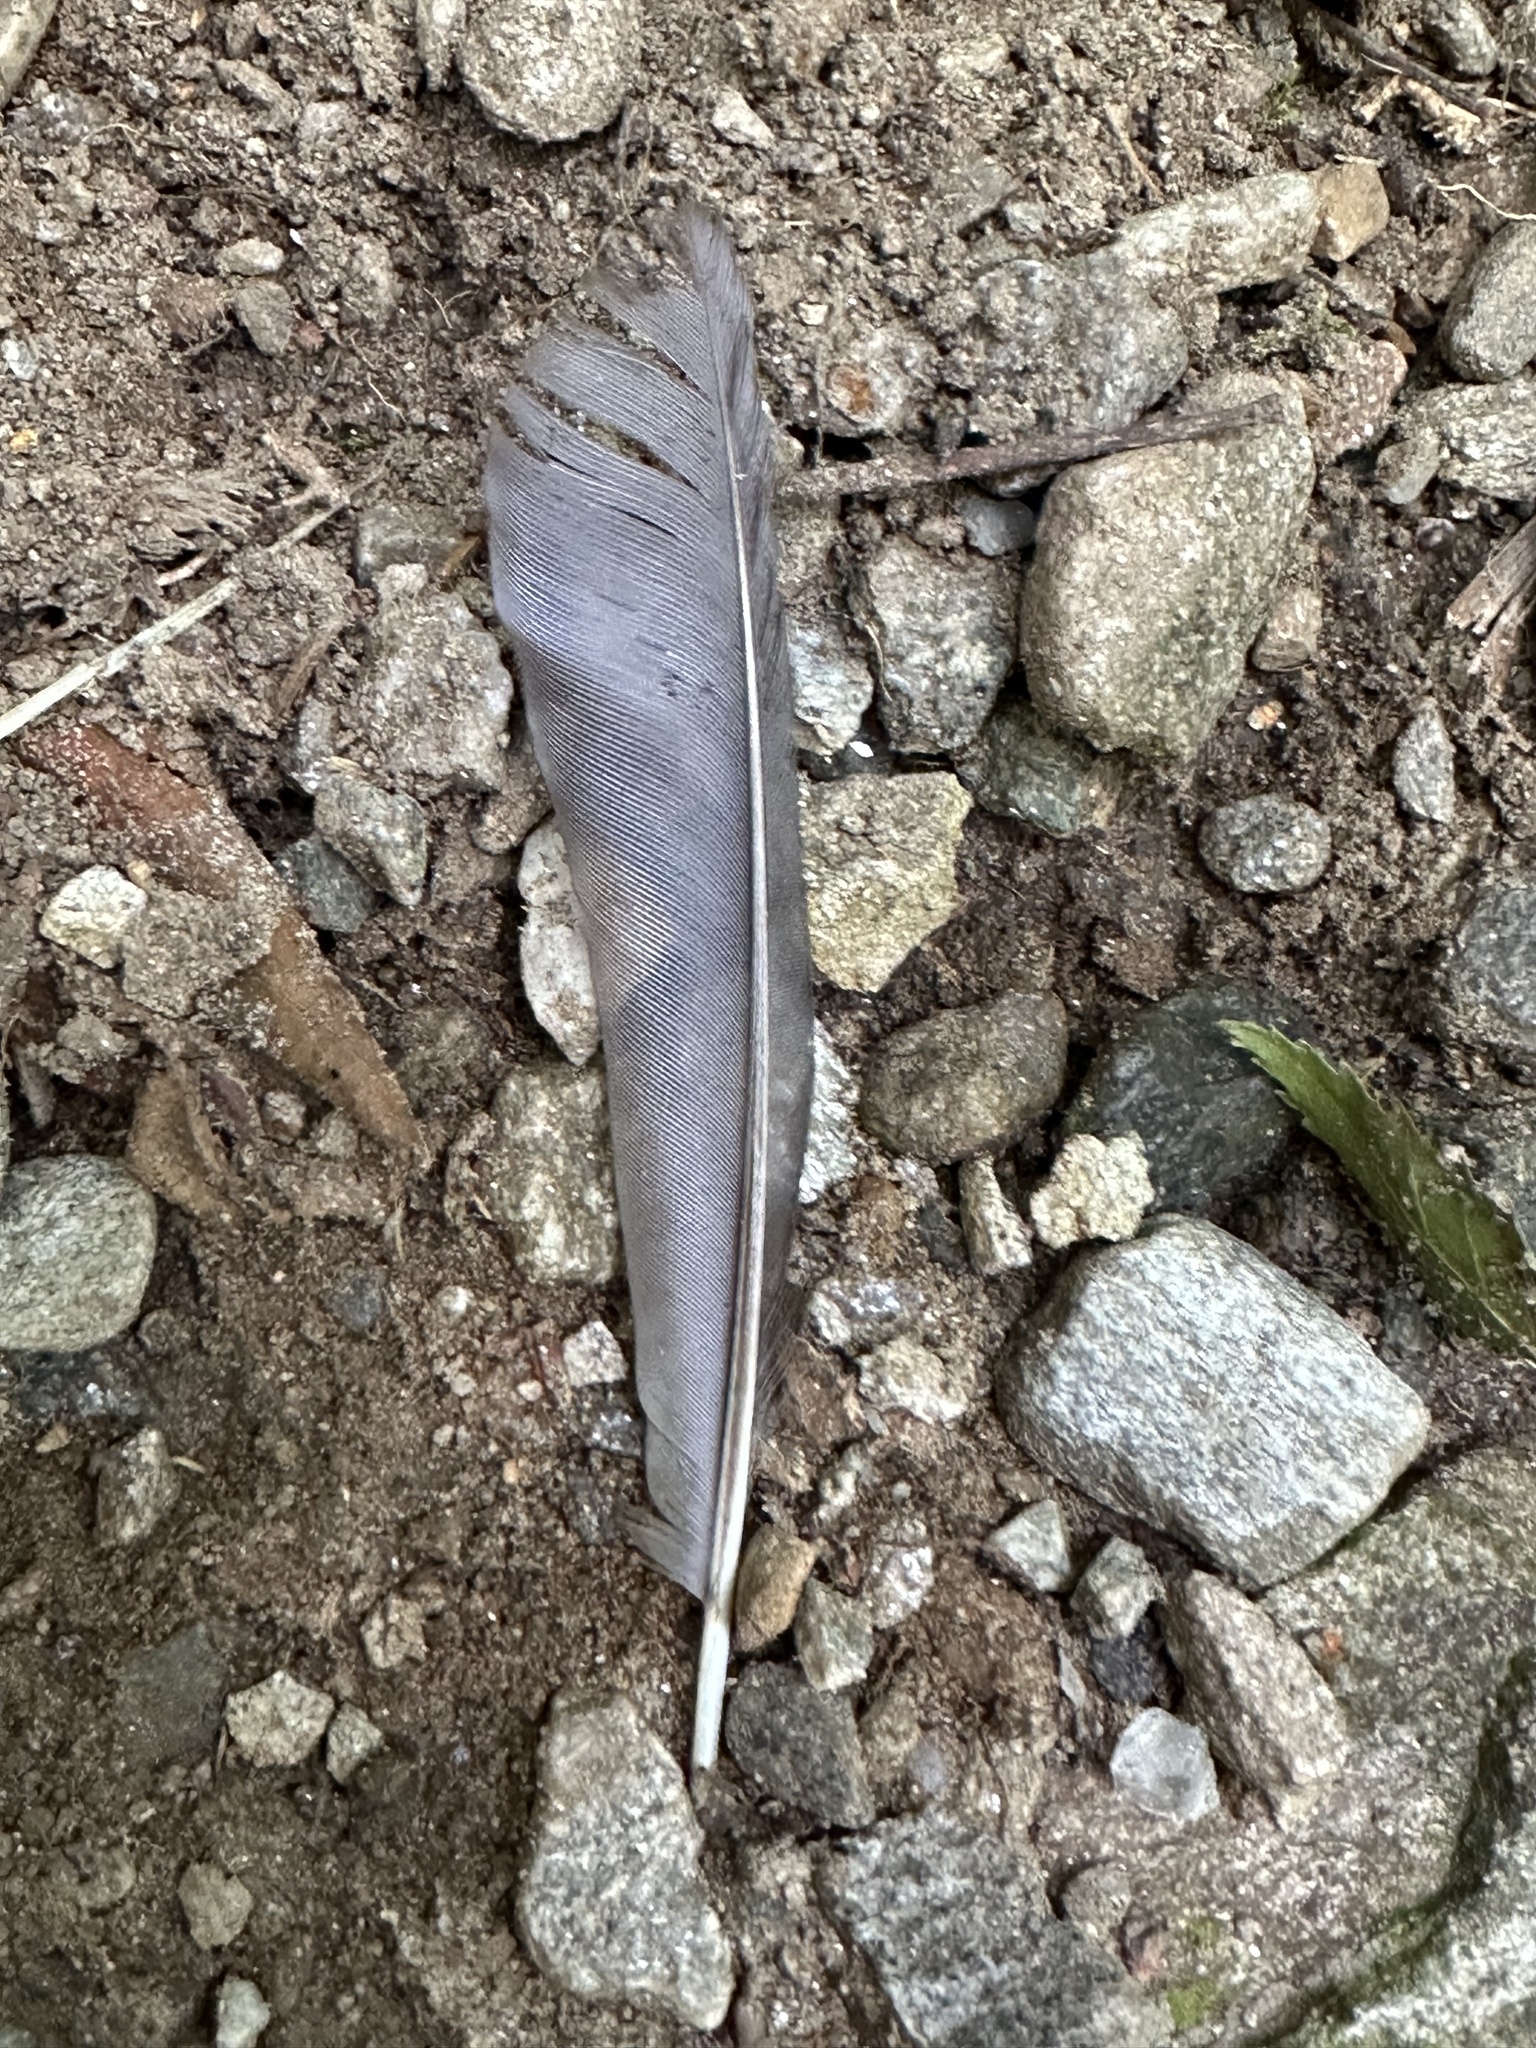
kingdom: Animalia
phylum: Chordata
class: Aves
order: Passeriformes
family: Turdidae
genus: Turdus
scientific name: Turdus merula
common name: Common blackbird
